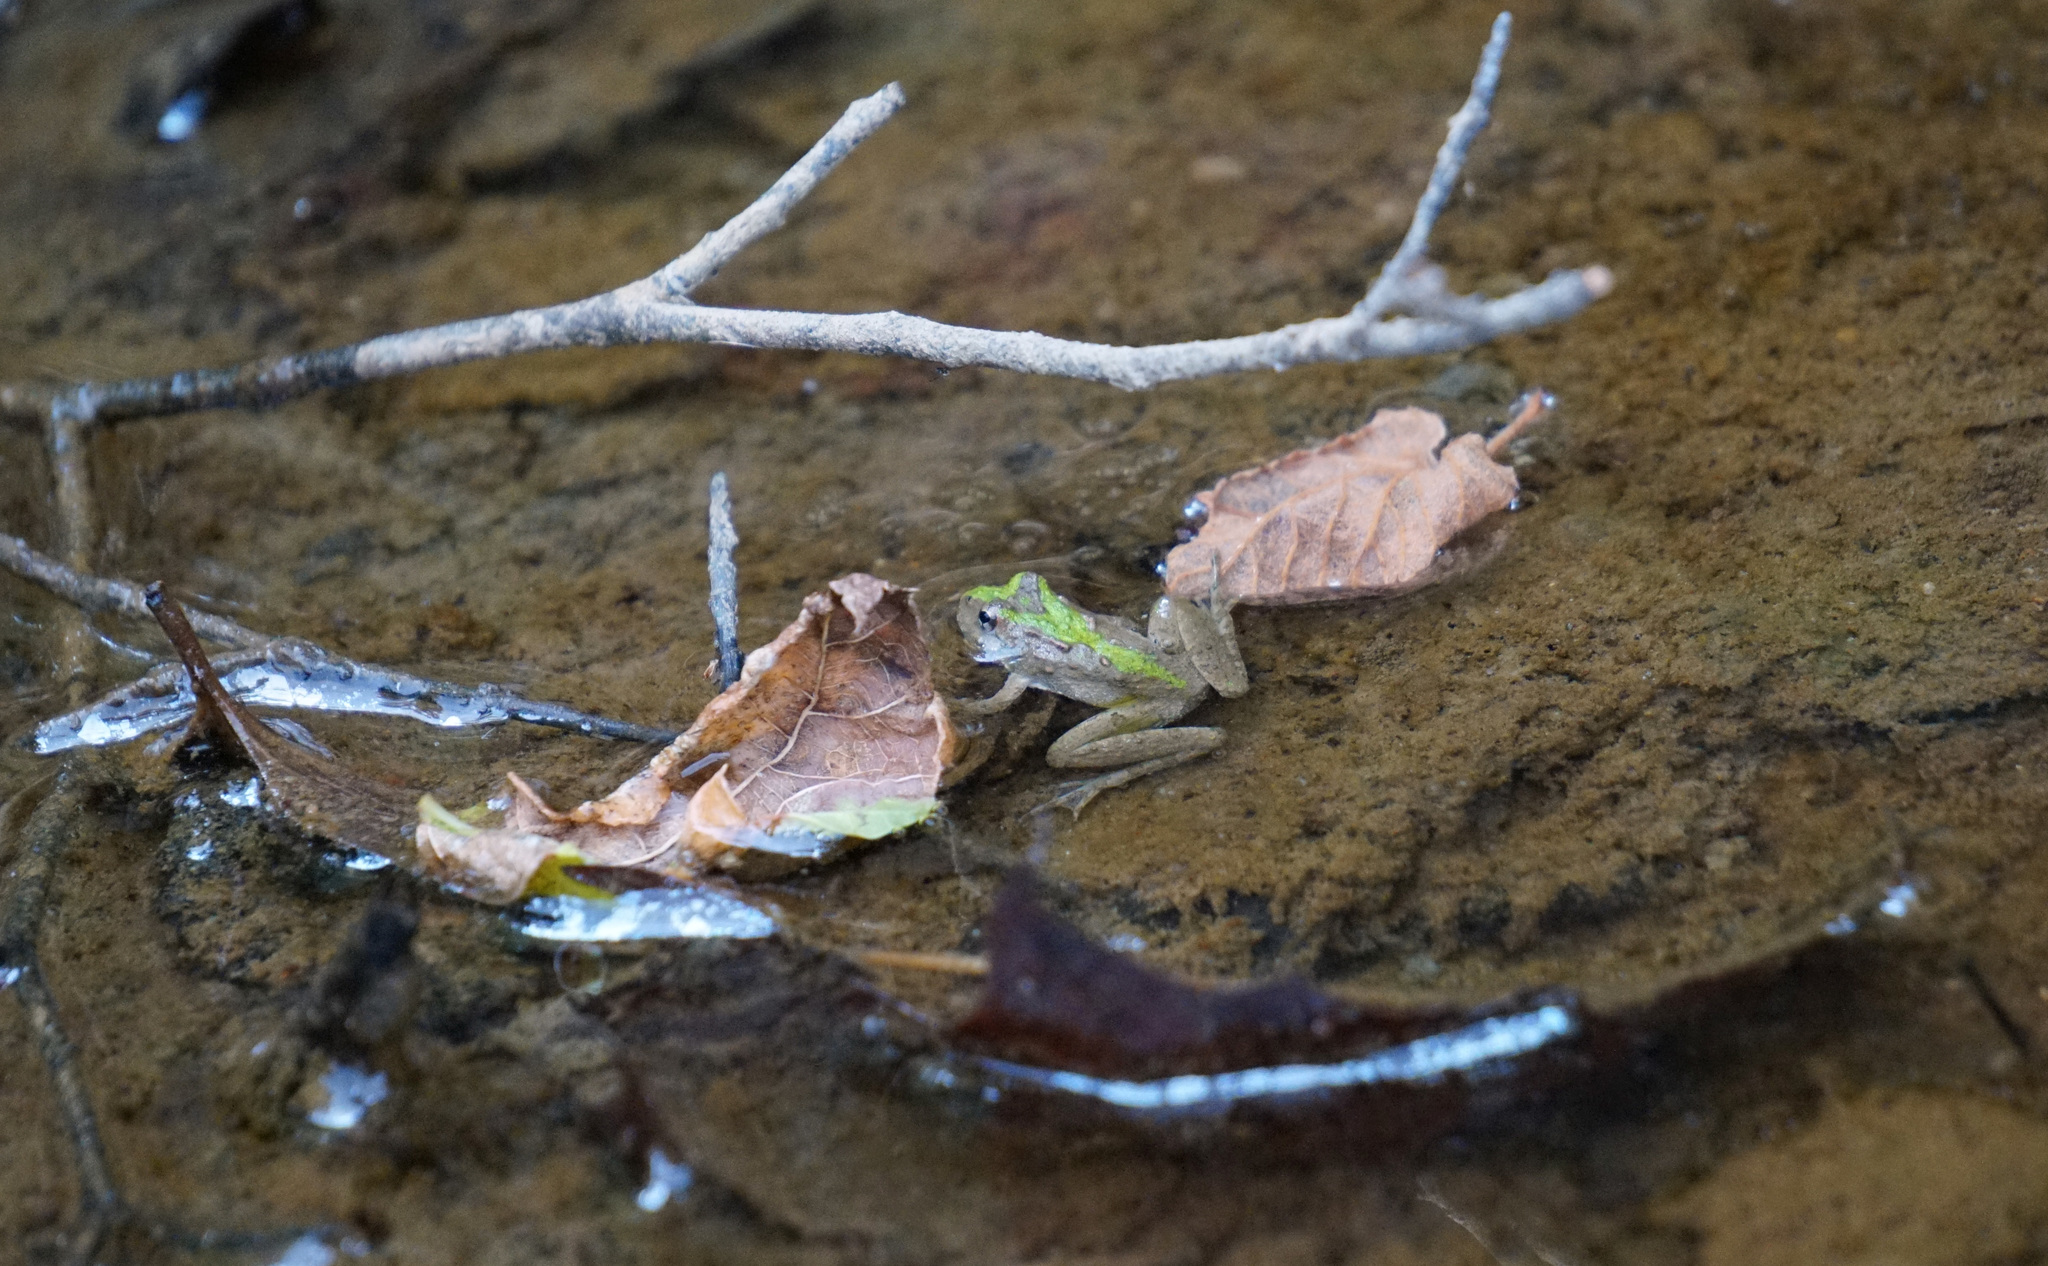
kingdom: Animalia
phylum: Chordata
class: Amphibia
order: Anura
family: Hylidae
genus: Acris
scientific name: Acris crepitans
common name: Northern cricket frog
